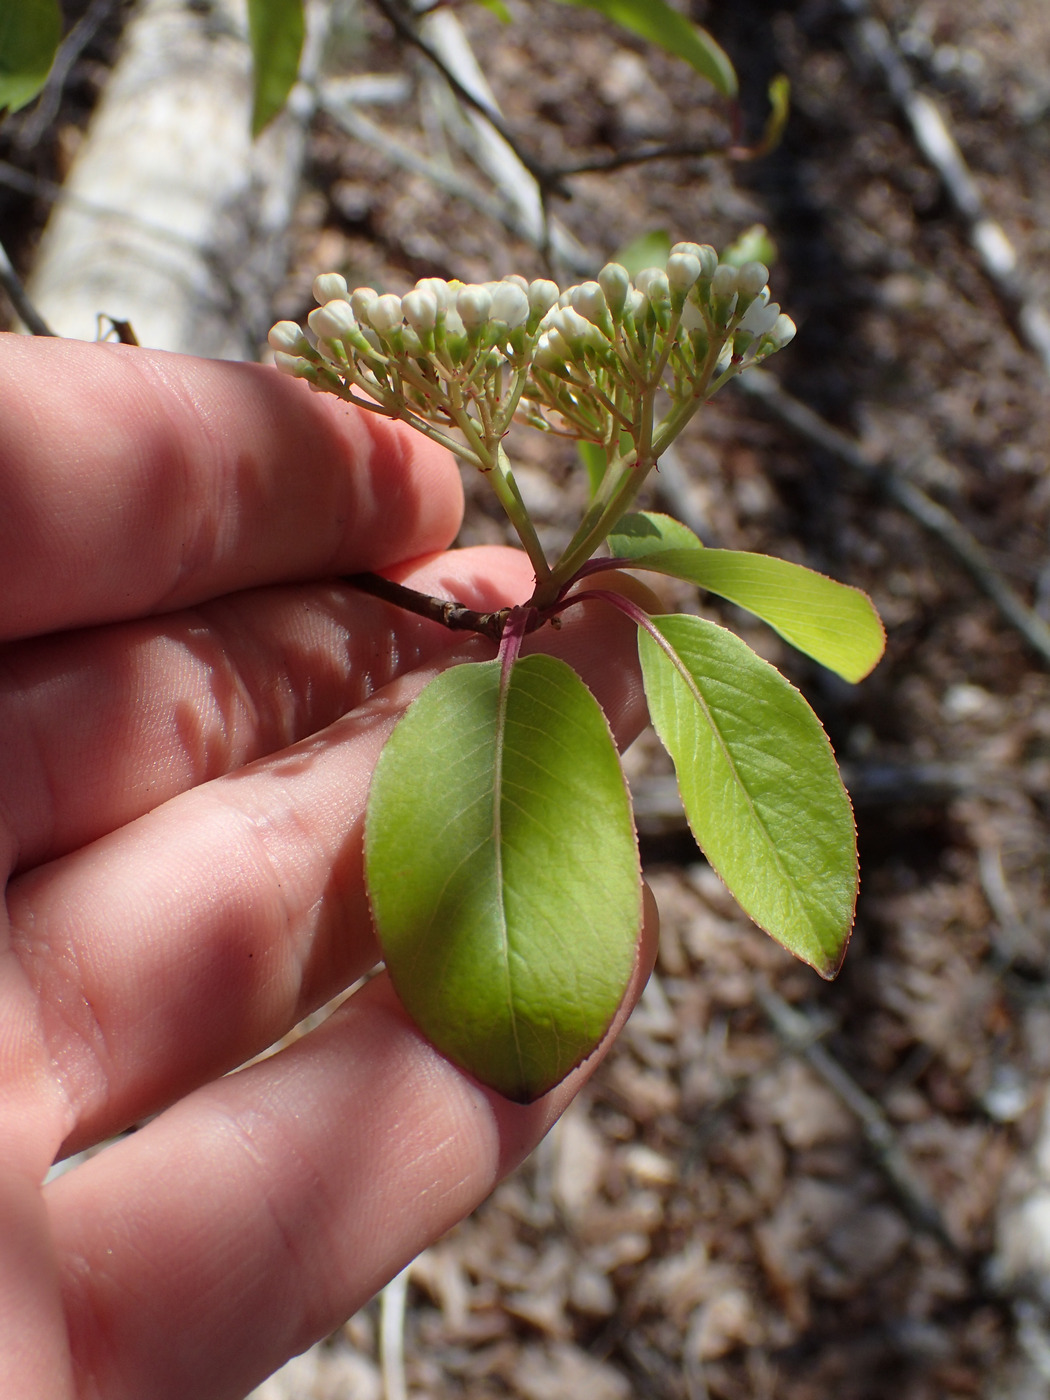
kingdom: Plantae
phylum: Tracheophyta
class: Magnoliopsida
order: Dipsacales
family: Viburnaceae
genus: Viburnum
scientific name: Viburnum prunifolium
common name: Black haw
